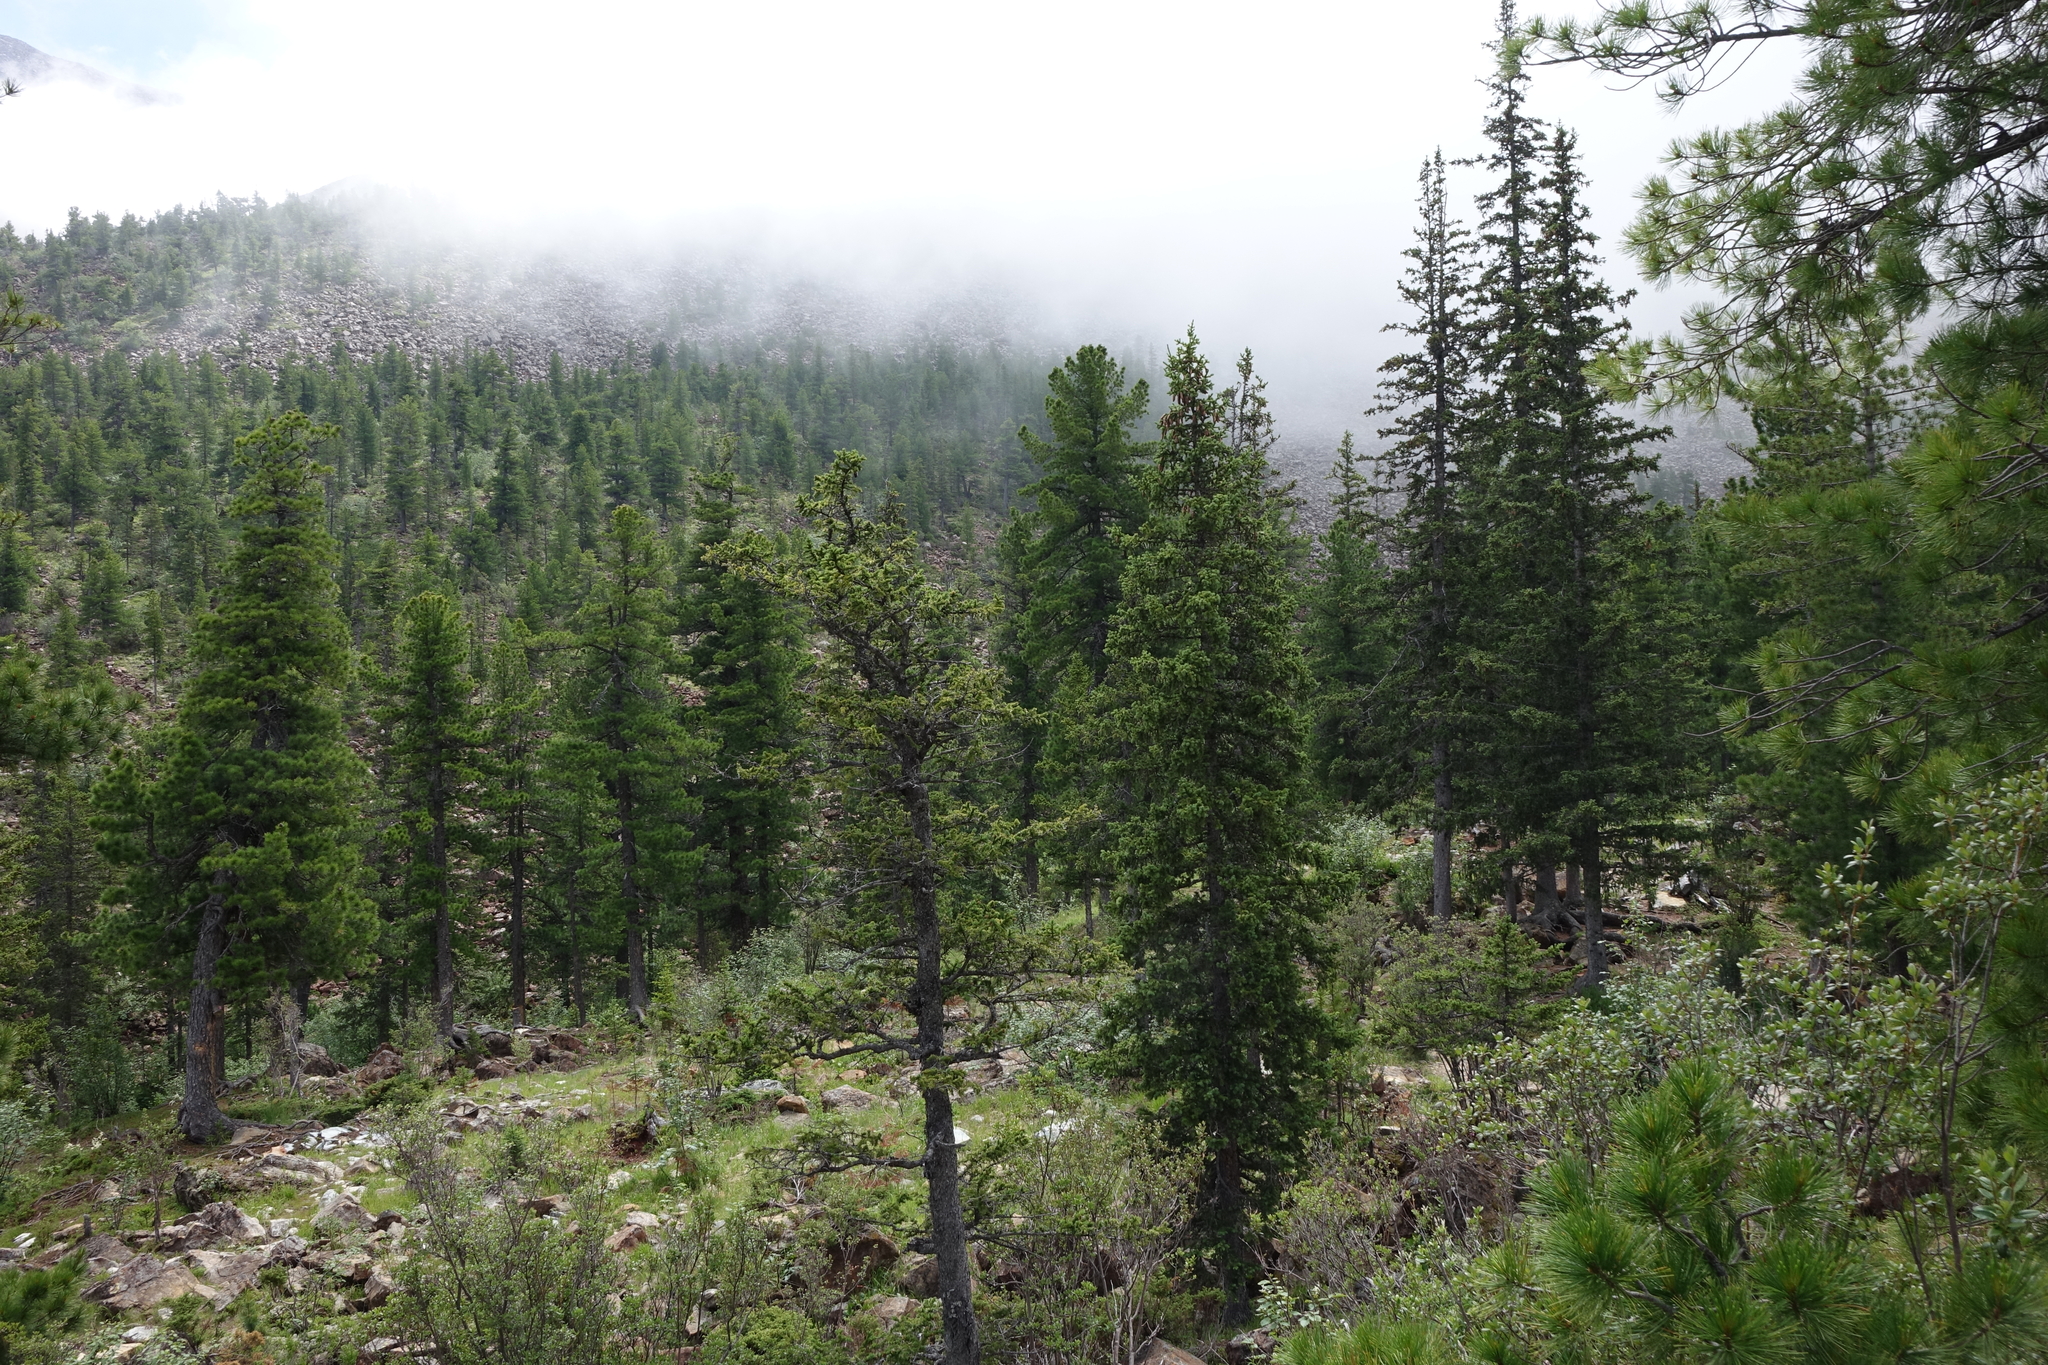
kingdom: Plantae
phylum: Tracheophyta
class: Pinopsida
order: Pinales
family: Pinaceae
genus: Pinus
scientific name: Pinus sibirica
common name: Siberian pine
